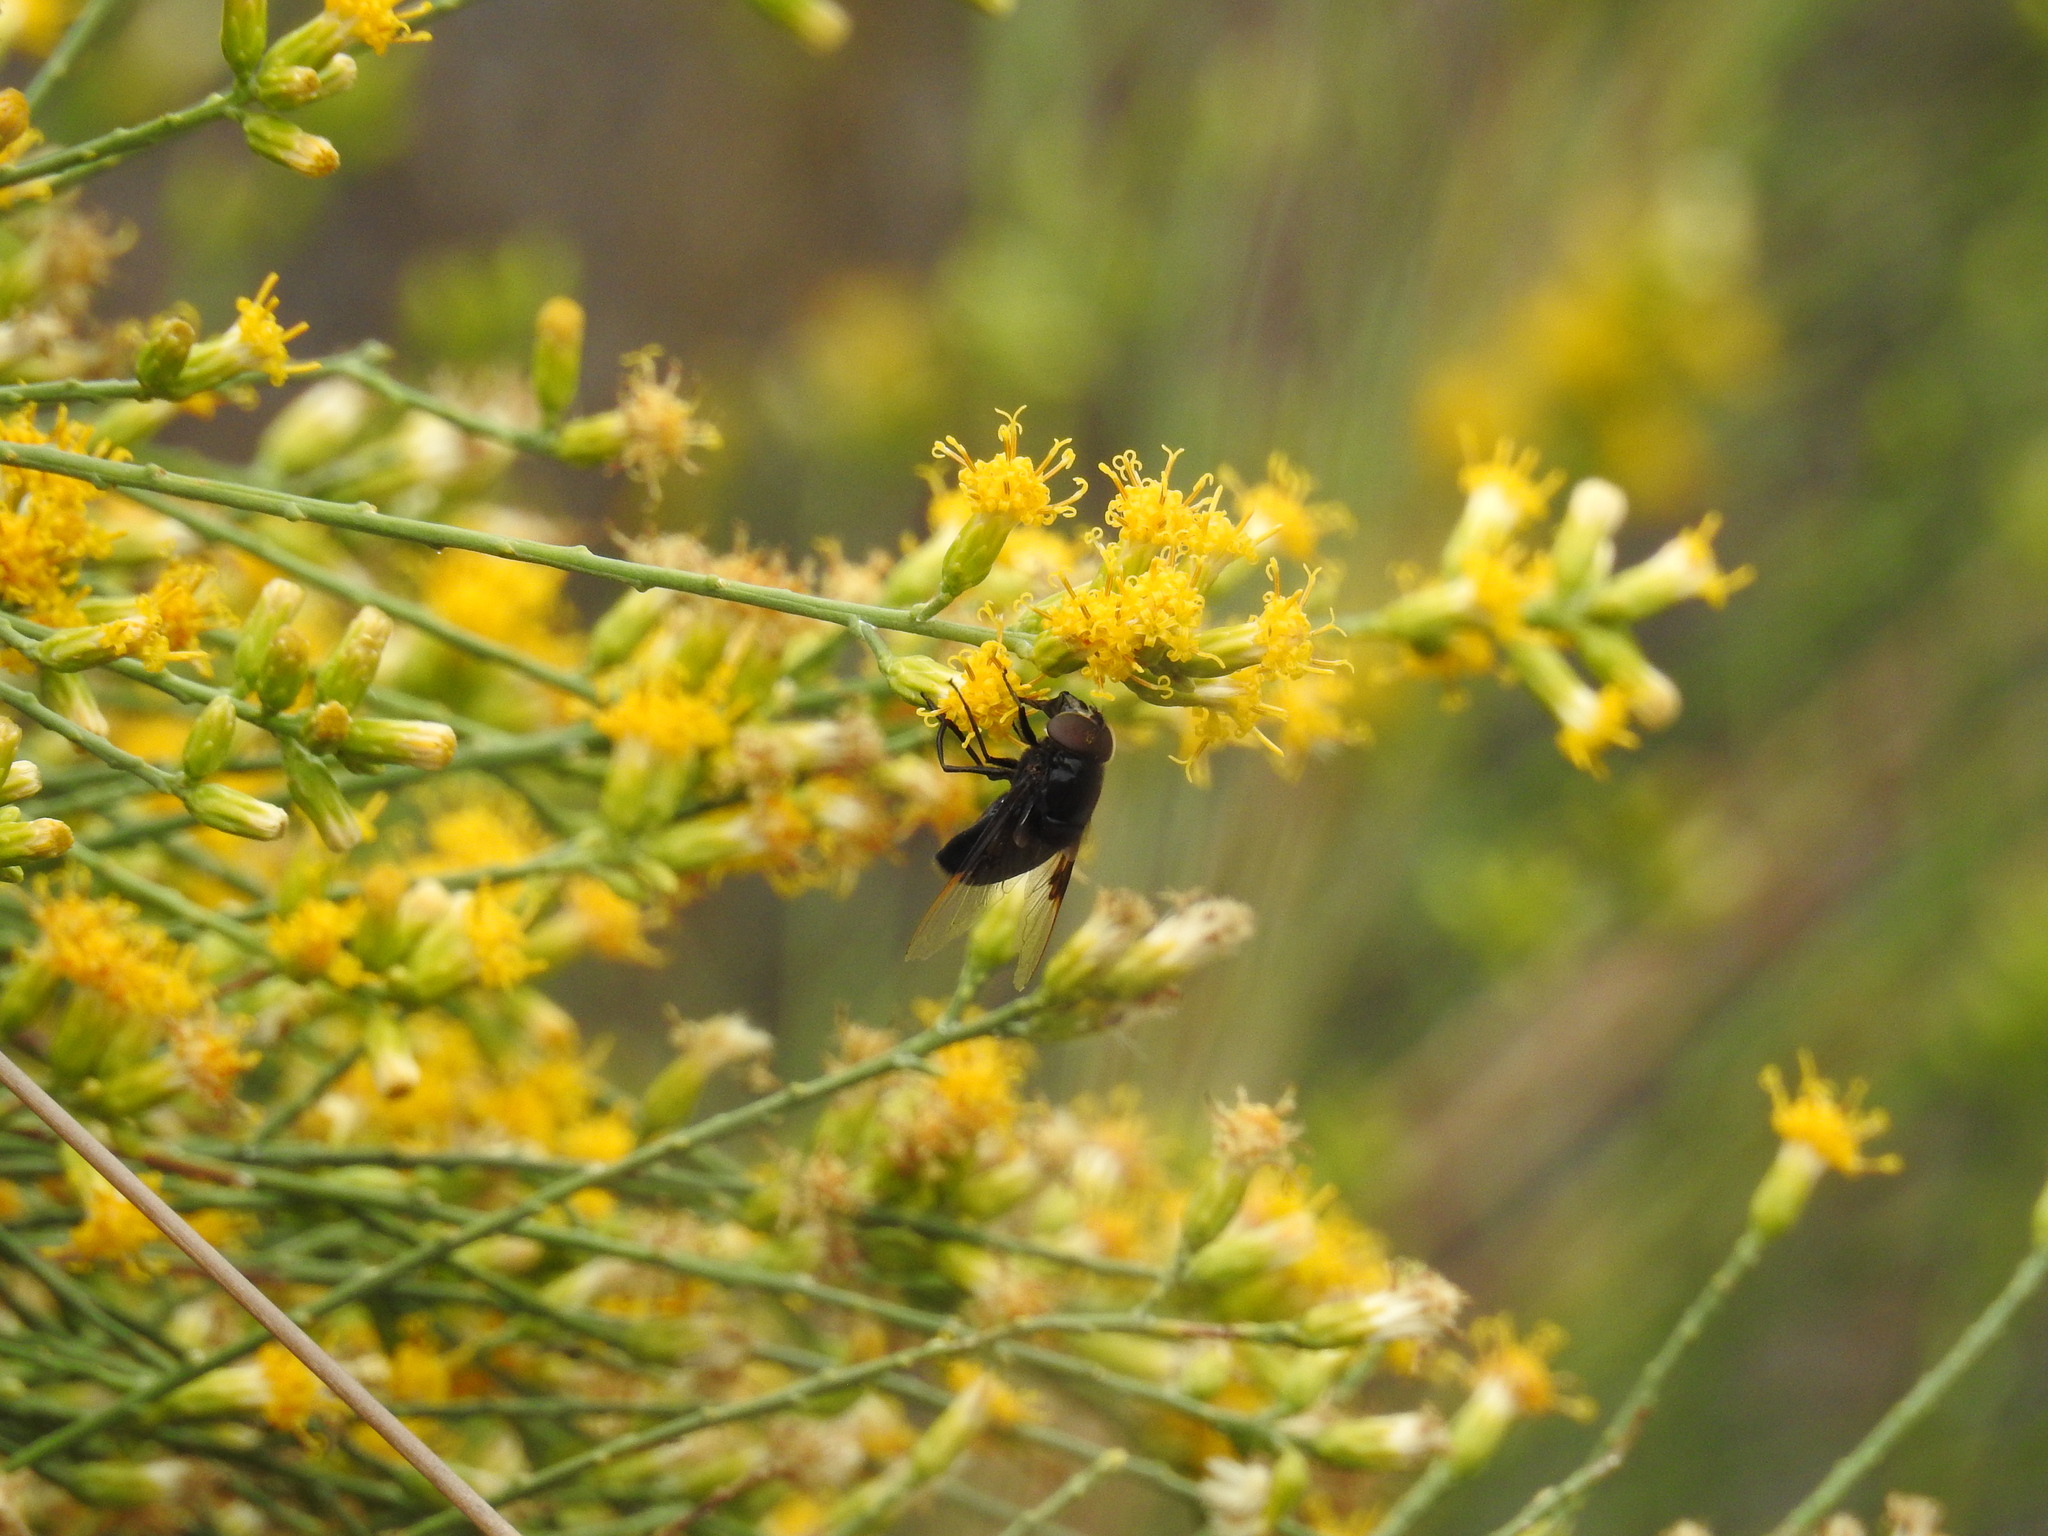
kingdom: Animalia
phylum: Arthropoda
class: Insecta
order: Diptera
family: Syrphidae
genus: Copestylum
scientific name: Copestylum
